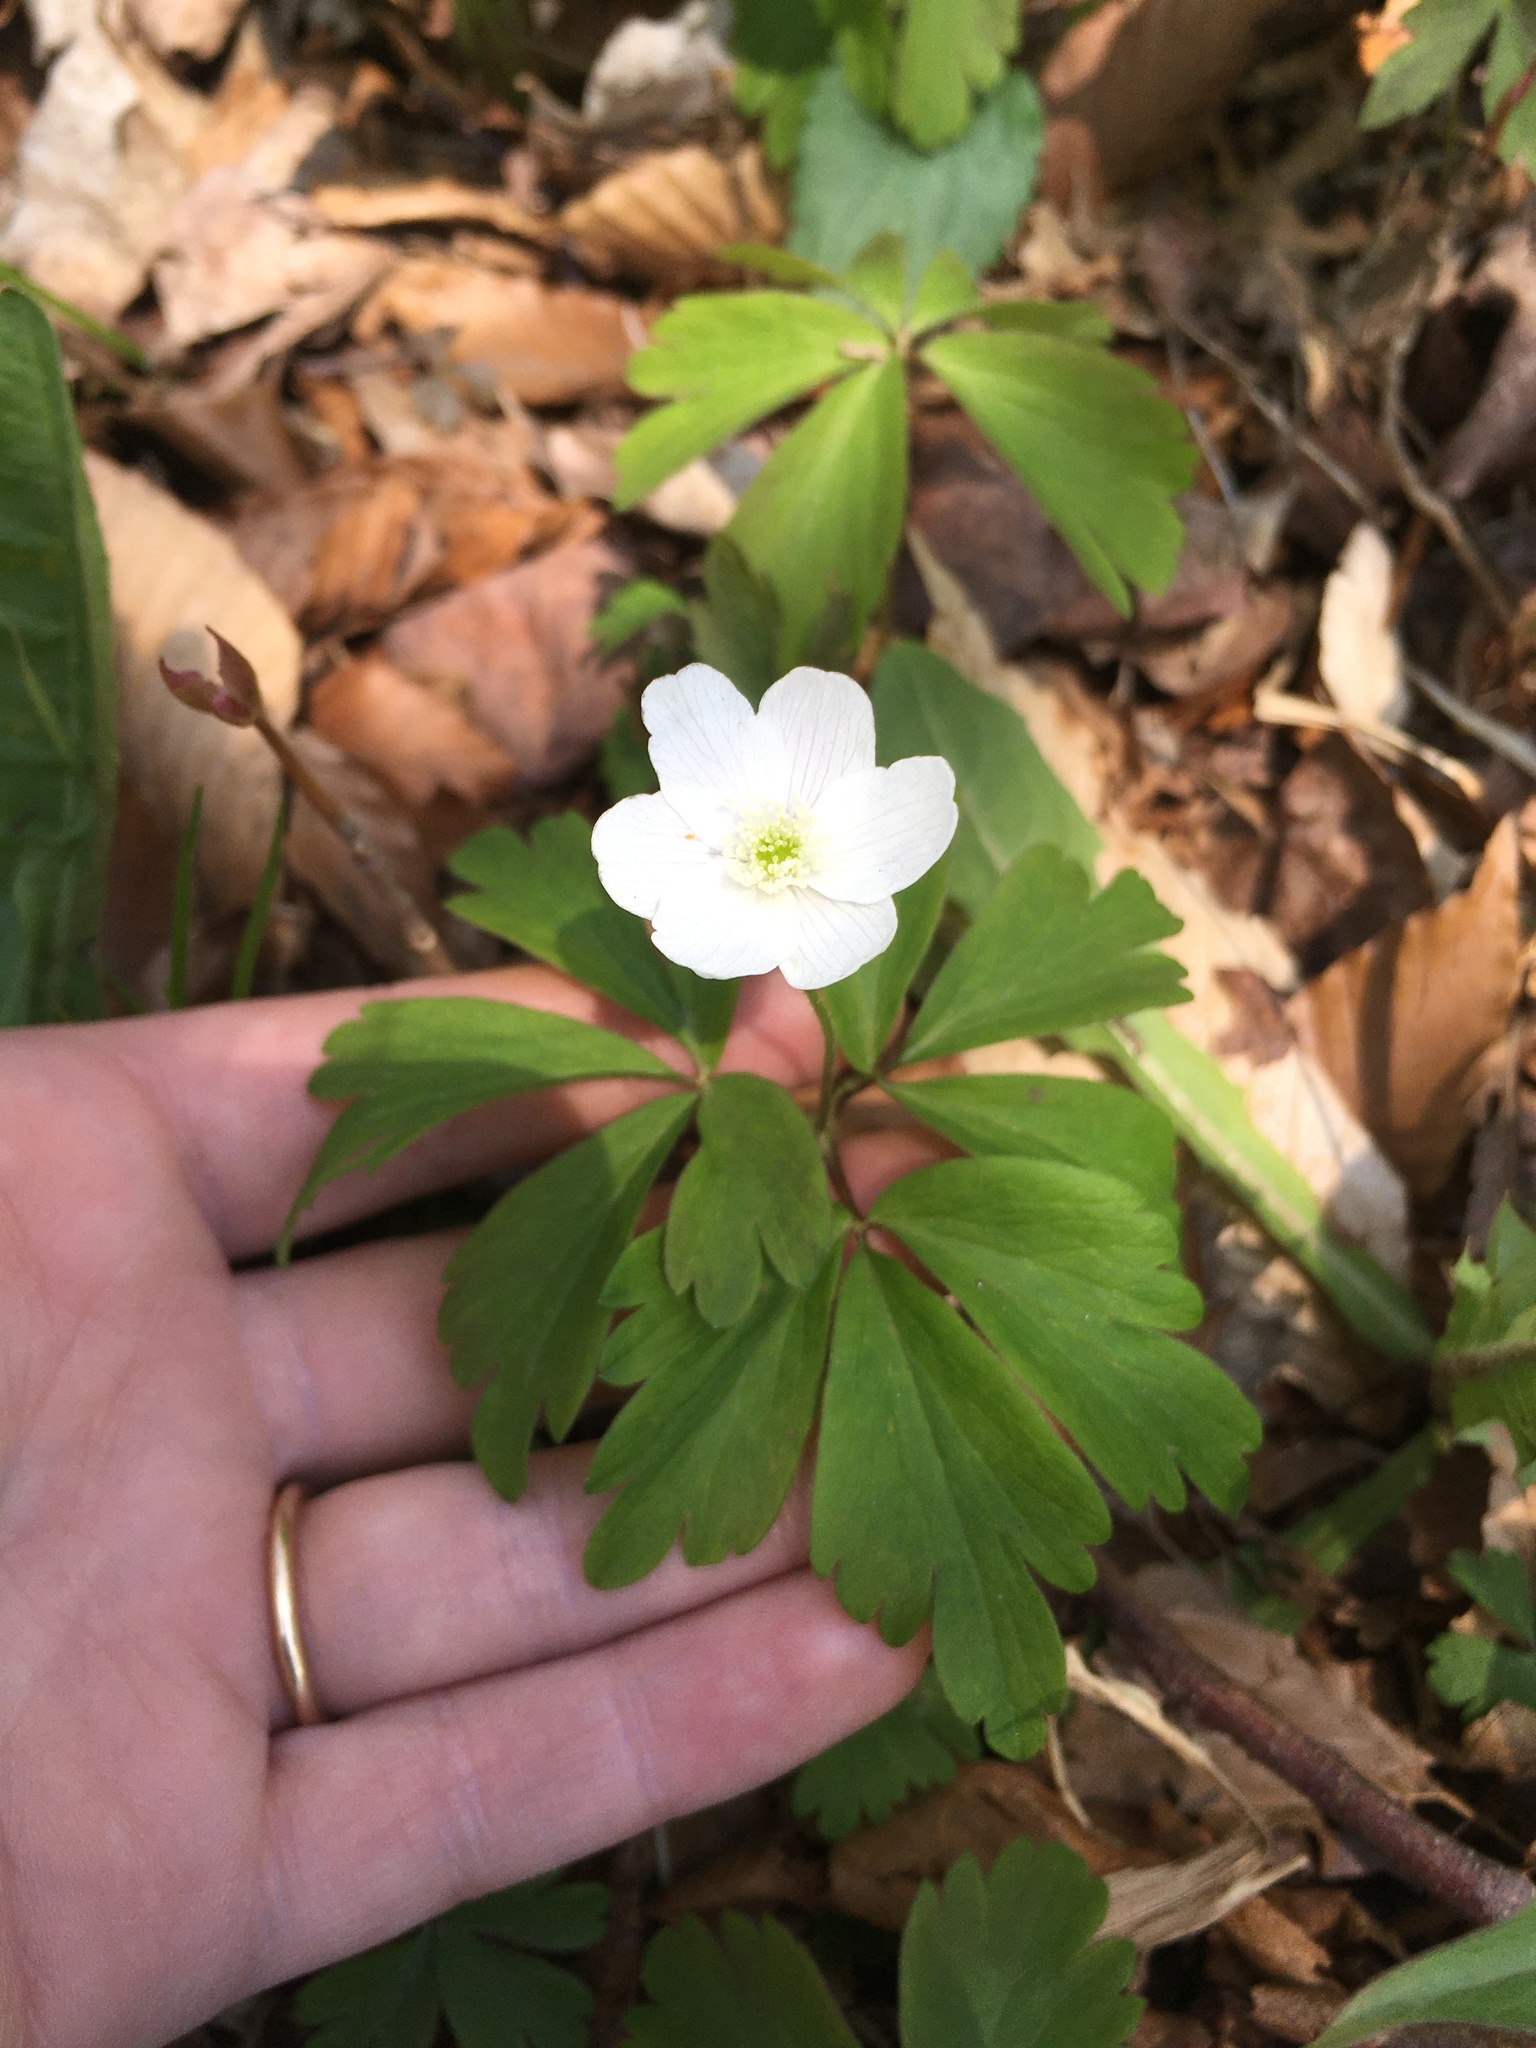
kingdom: Plantae
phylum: Tracheophyta
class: Magnoliopsida
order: Ranunculales
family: Ranunculaceae
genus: Anemone
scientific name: Anemone quinquefolia
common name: Wood anemone
